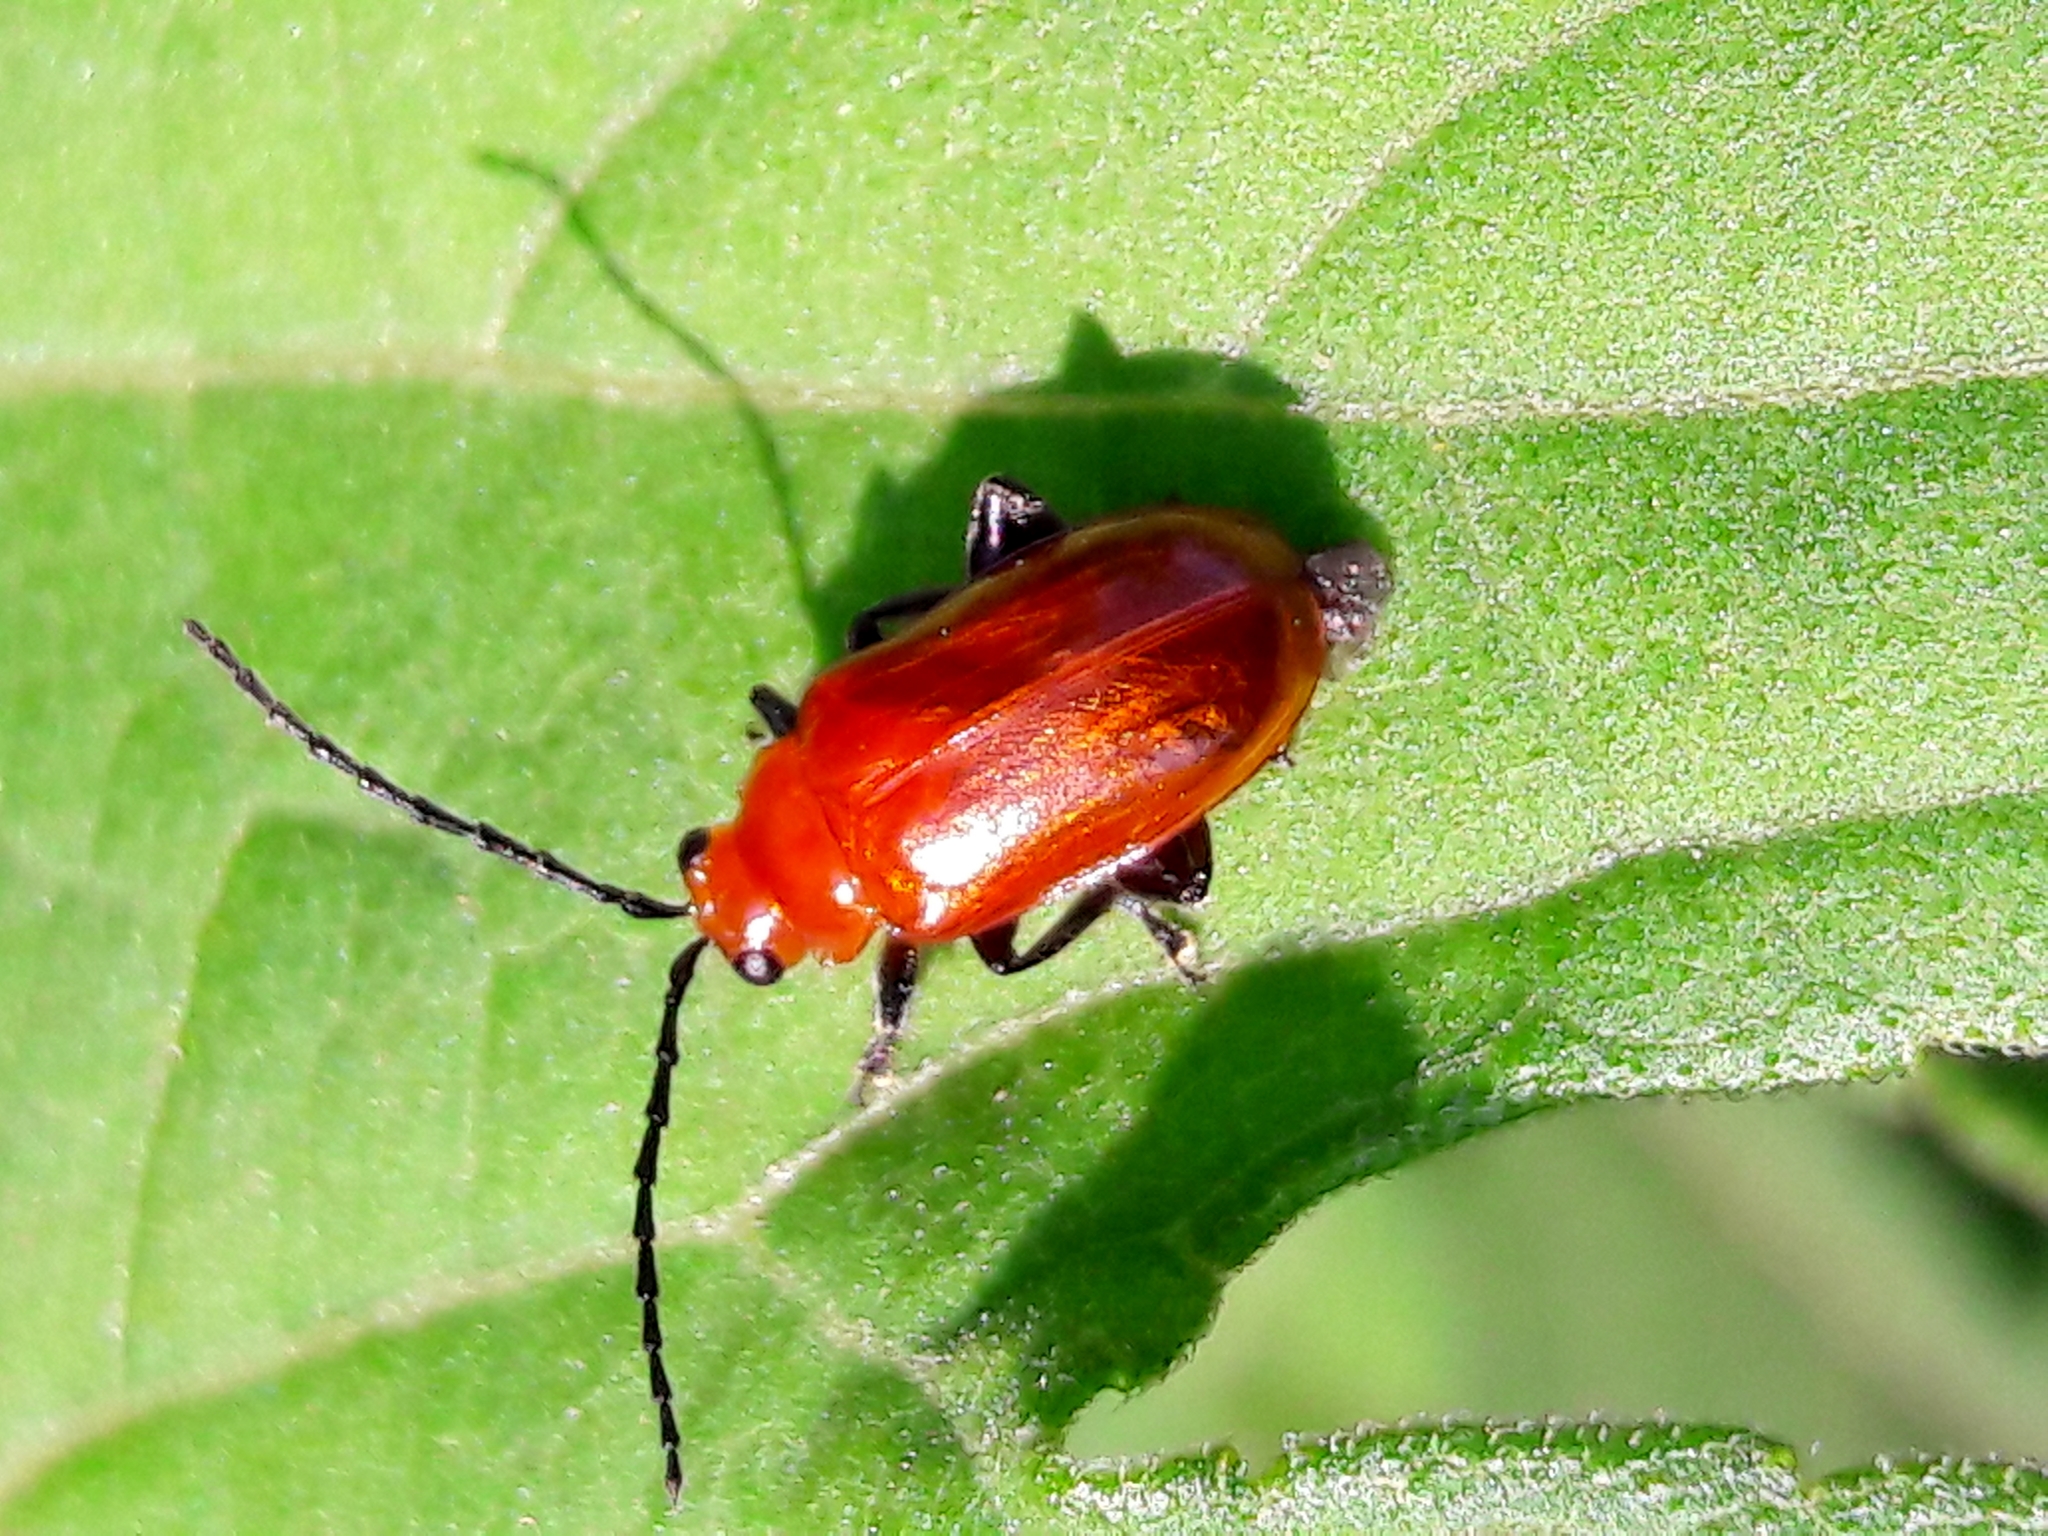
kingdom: Animalia
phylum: Arthropoda
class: Insecta
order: Coleoptera
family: Chrysomelidae
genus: Platiprosopus
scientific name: Platiprosopus
